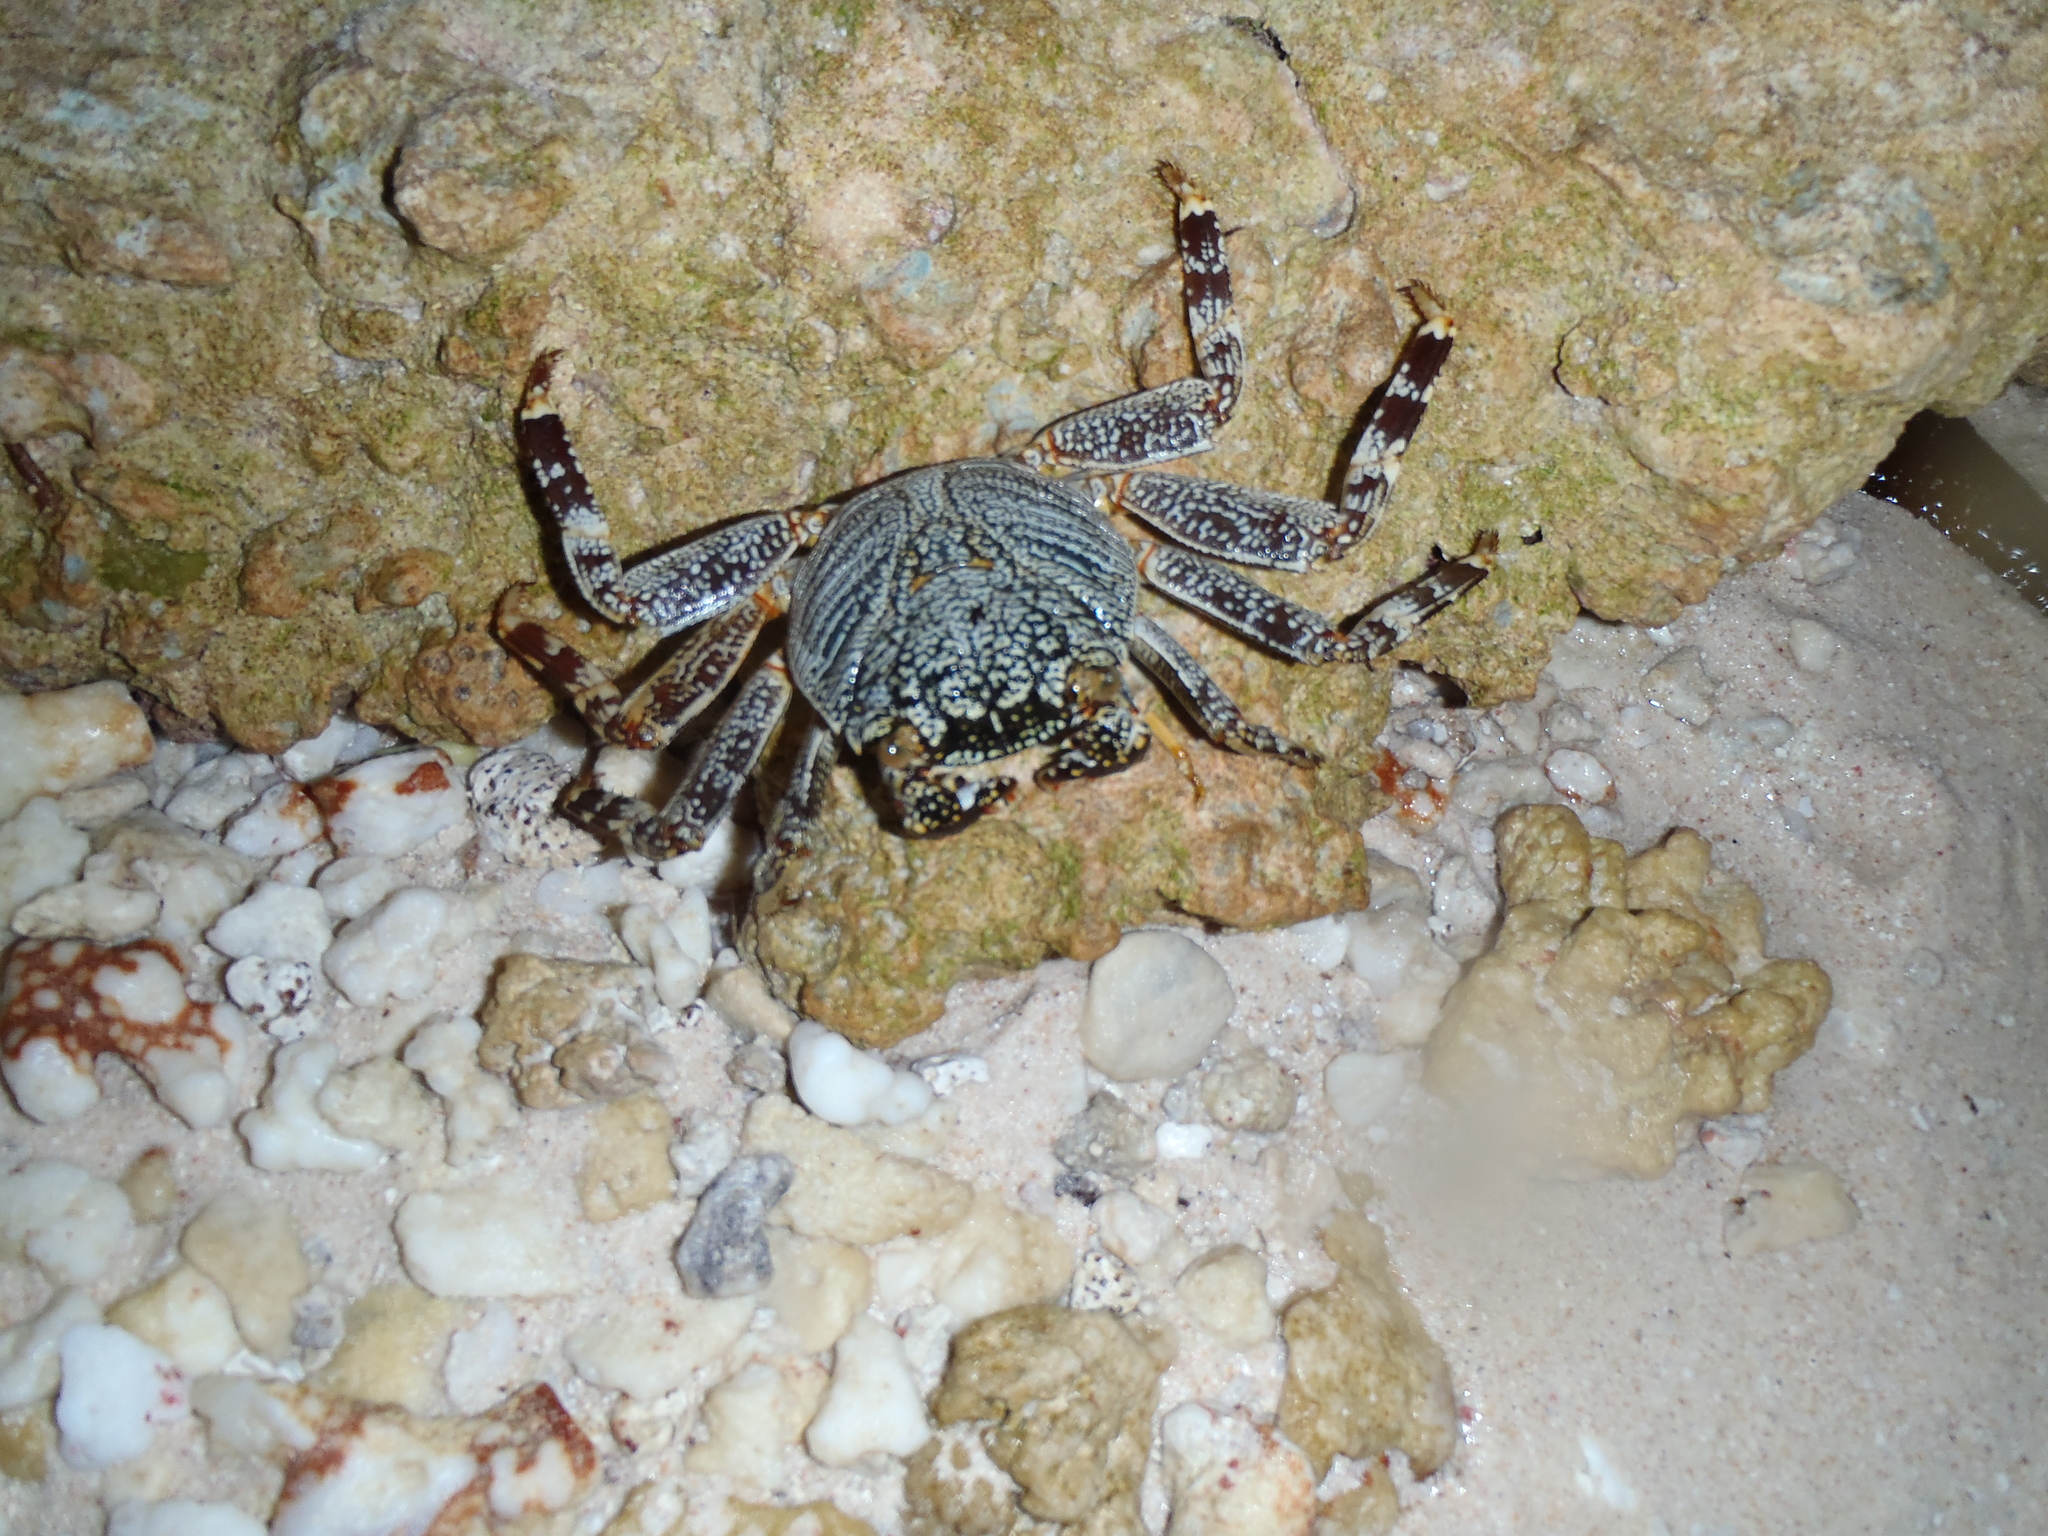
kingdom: Animalia
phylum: Arthropoda
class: Malacostraca
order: Decapoda
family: Grapsidae
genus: Grapsus
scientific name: Grapsus tenuicrustatus
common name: Natal lightfoot crab
